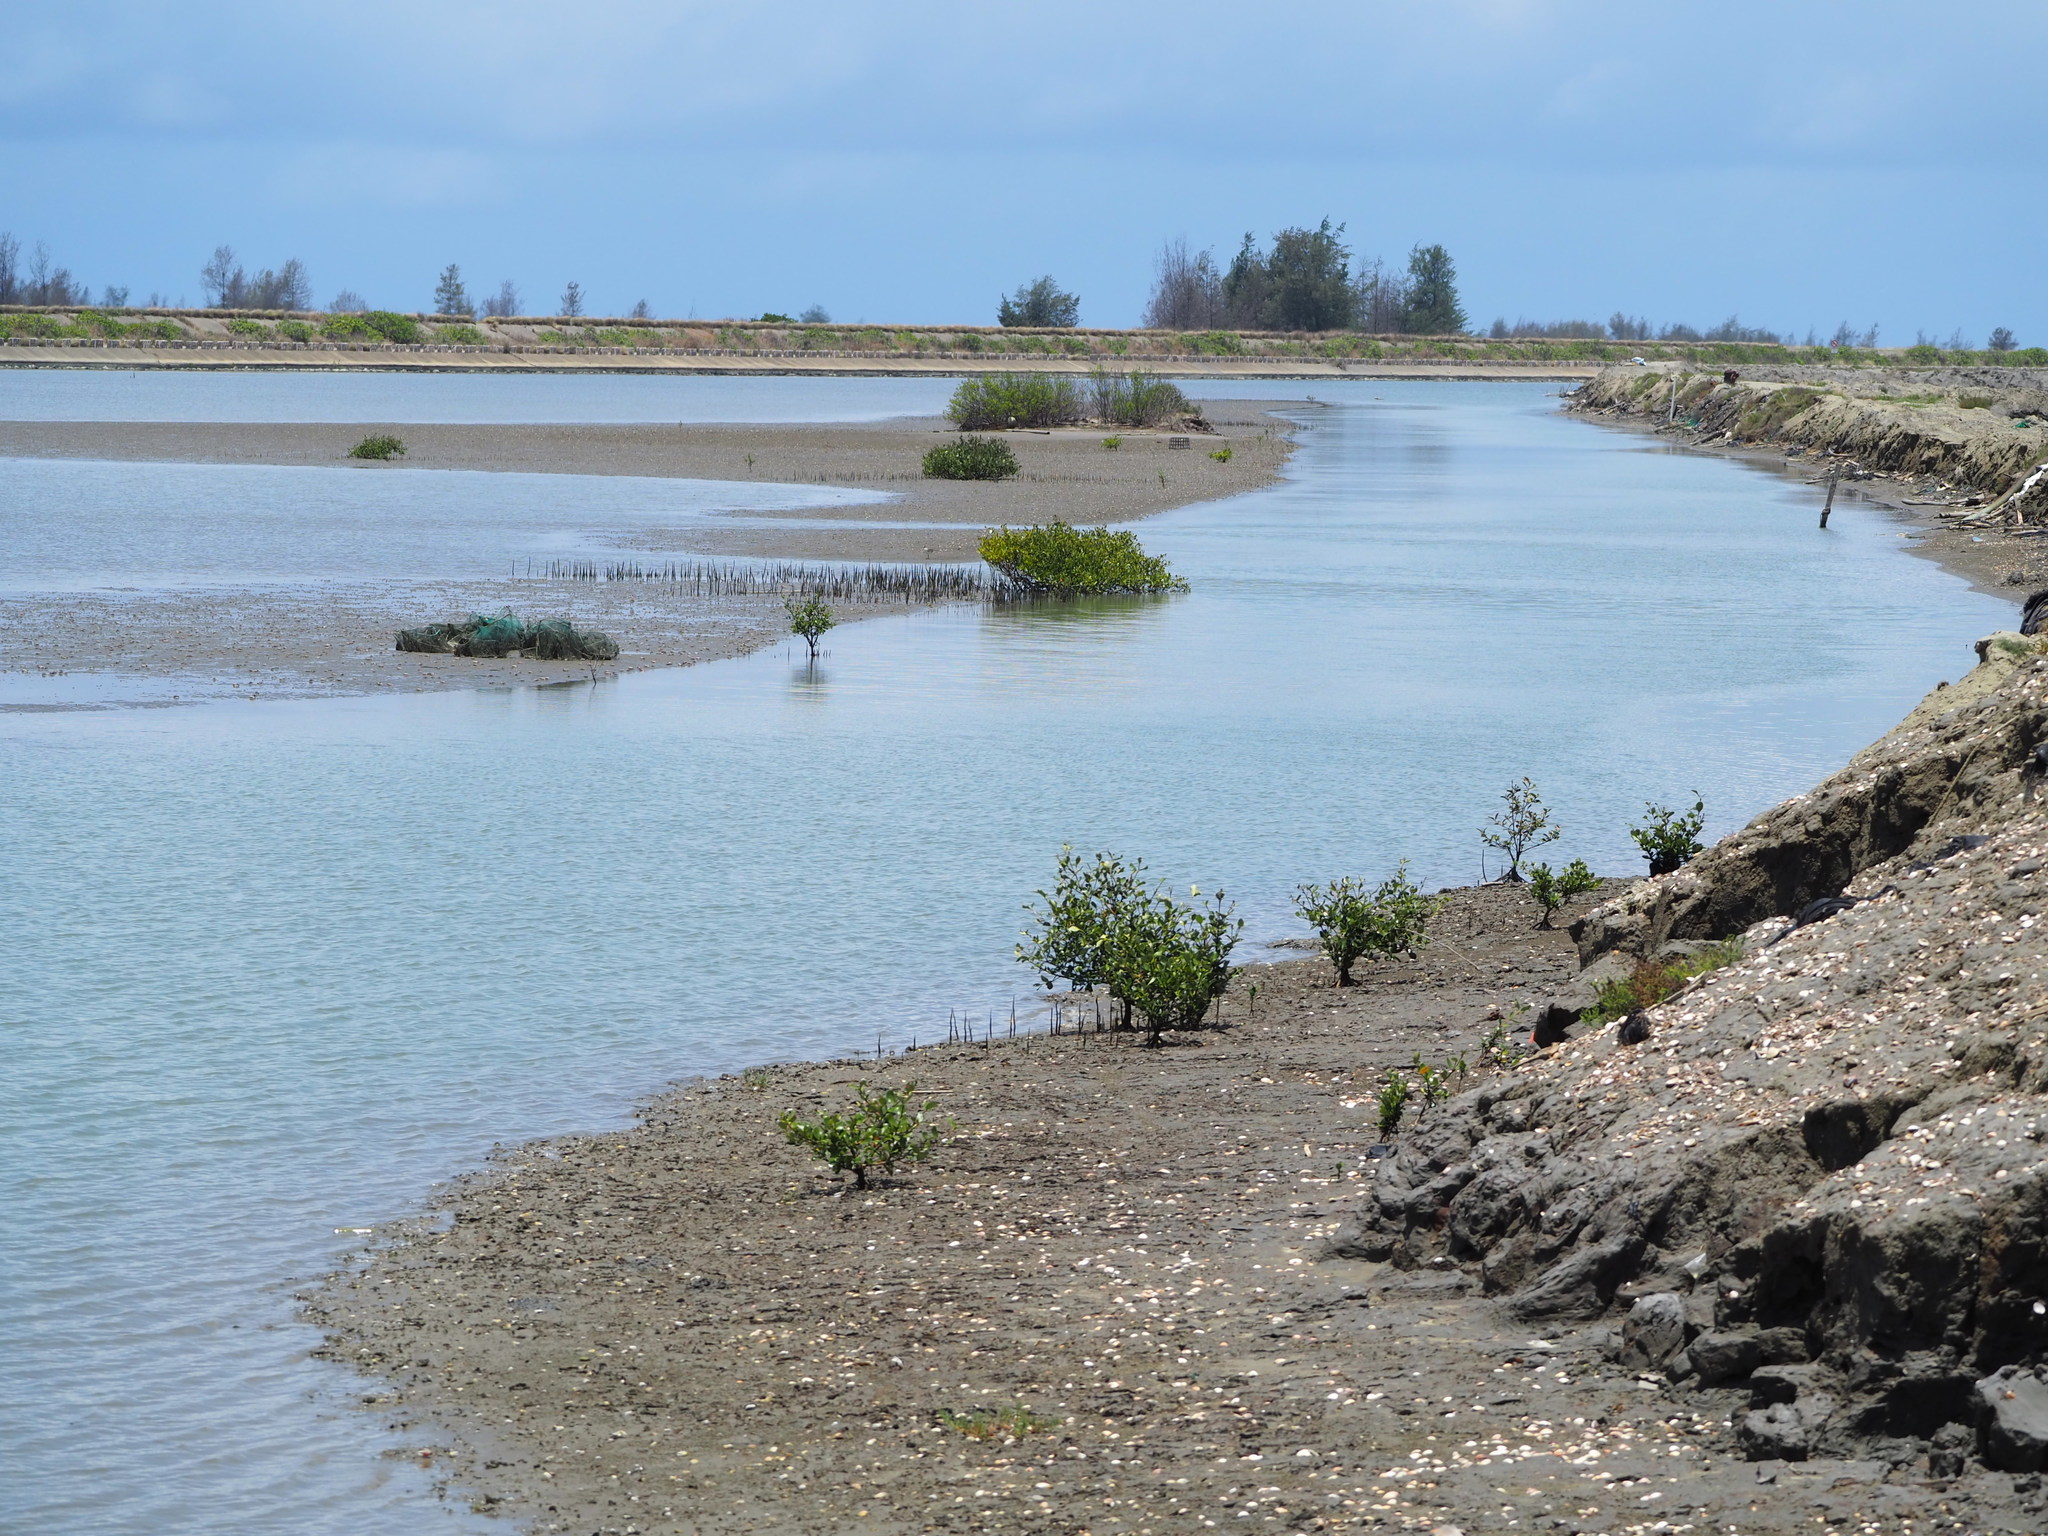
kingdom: Plantae
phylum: Tracheophyta
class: Magnoliopsida
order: Lamiales
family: Acanthaceae
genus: Avicennia
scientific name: Avicennia marina
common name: Gray mangrove
